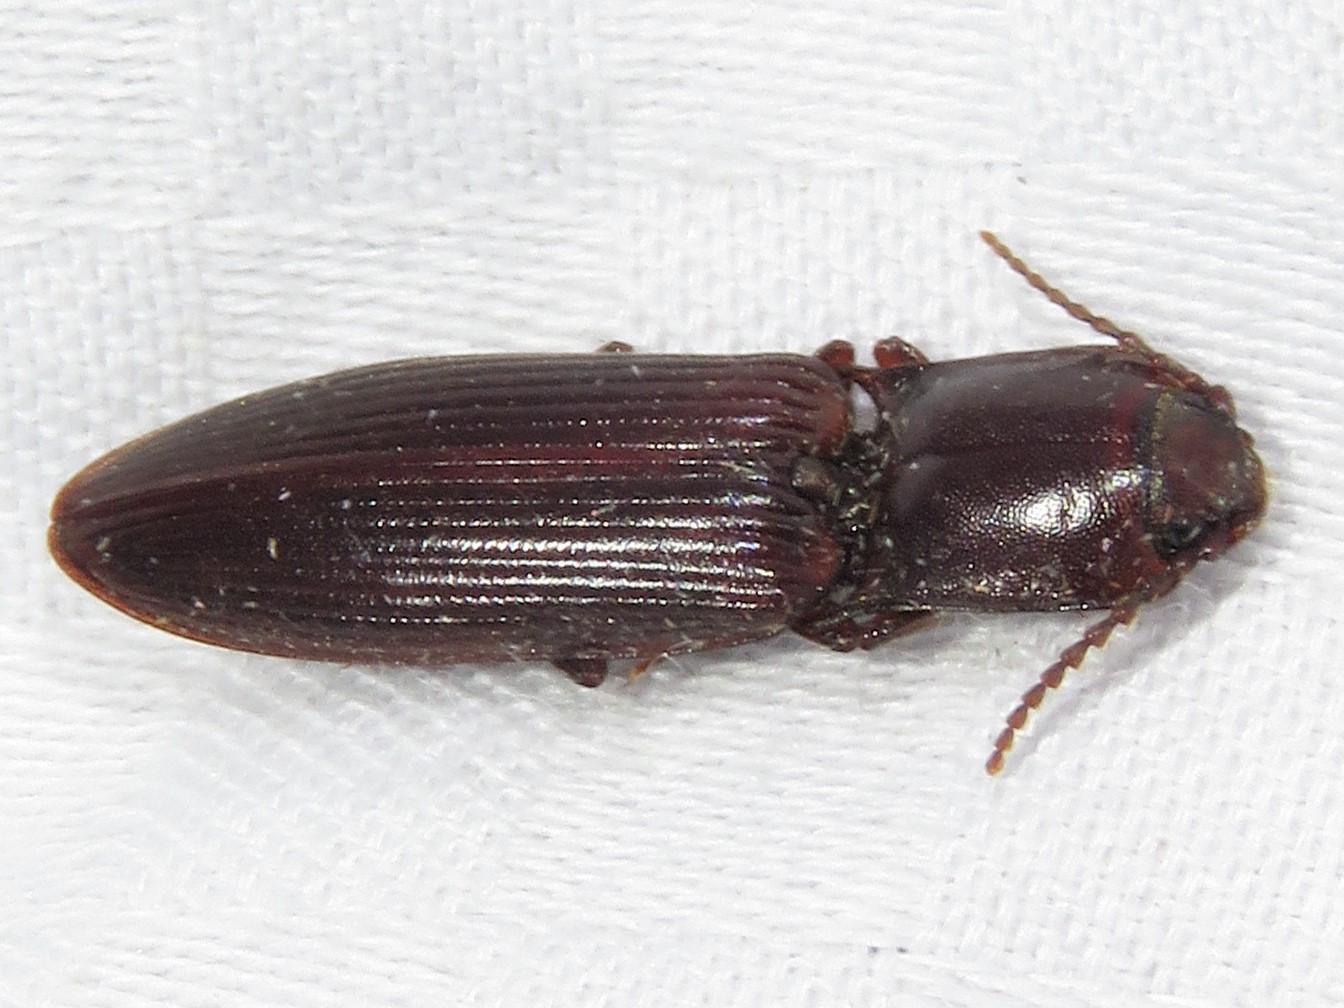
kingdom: Animalia
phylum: Arthropoda
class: Insecta
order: Coleoptera
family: Elateridae
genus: Laneganus
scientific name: Laneganus sulcicollis
